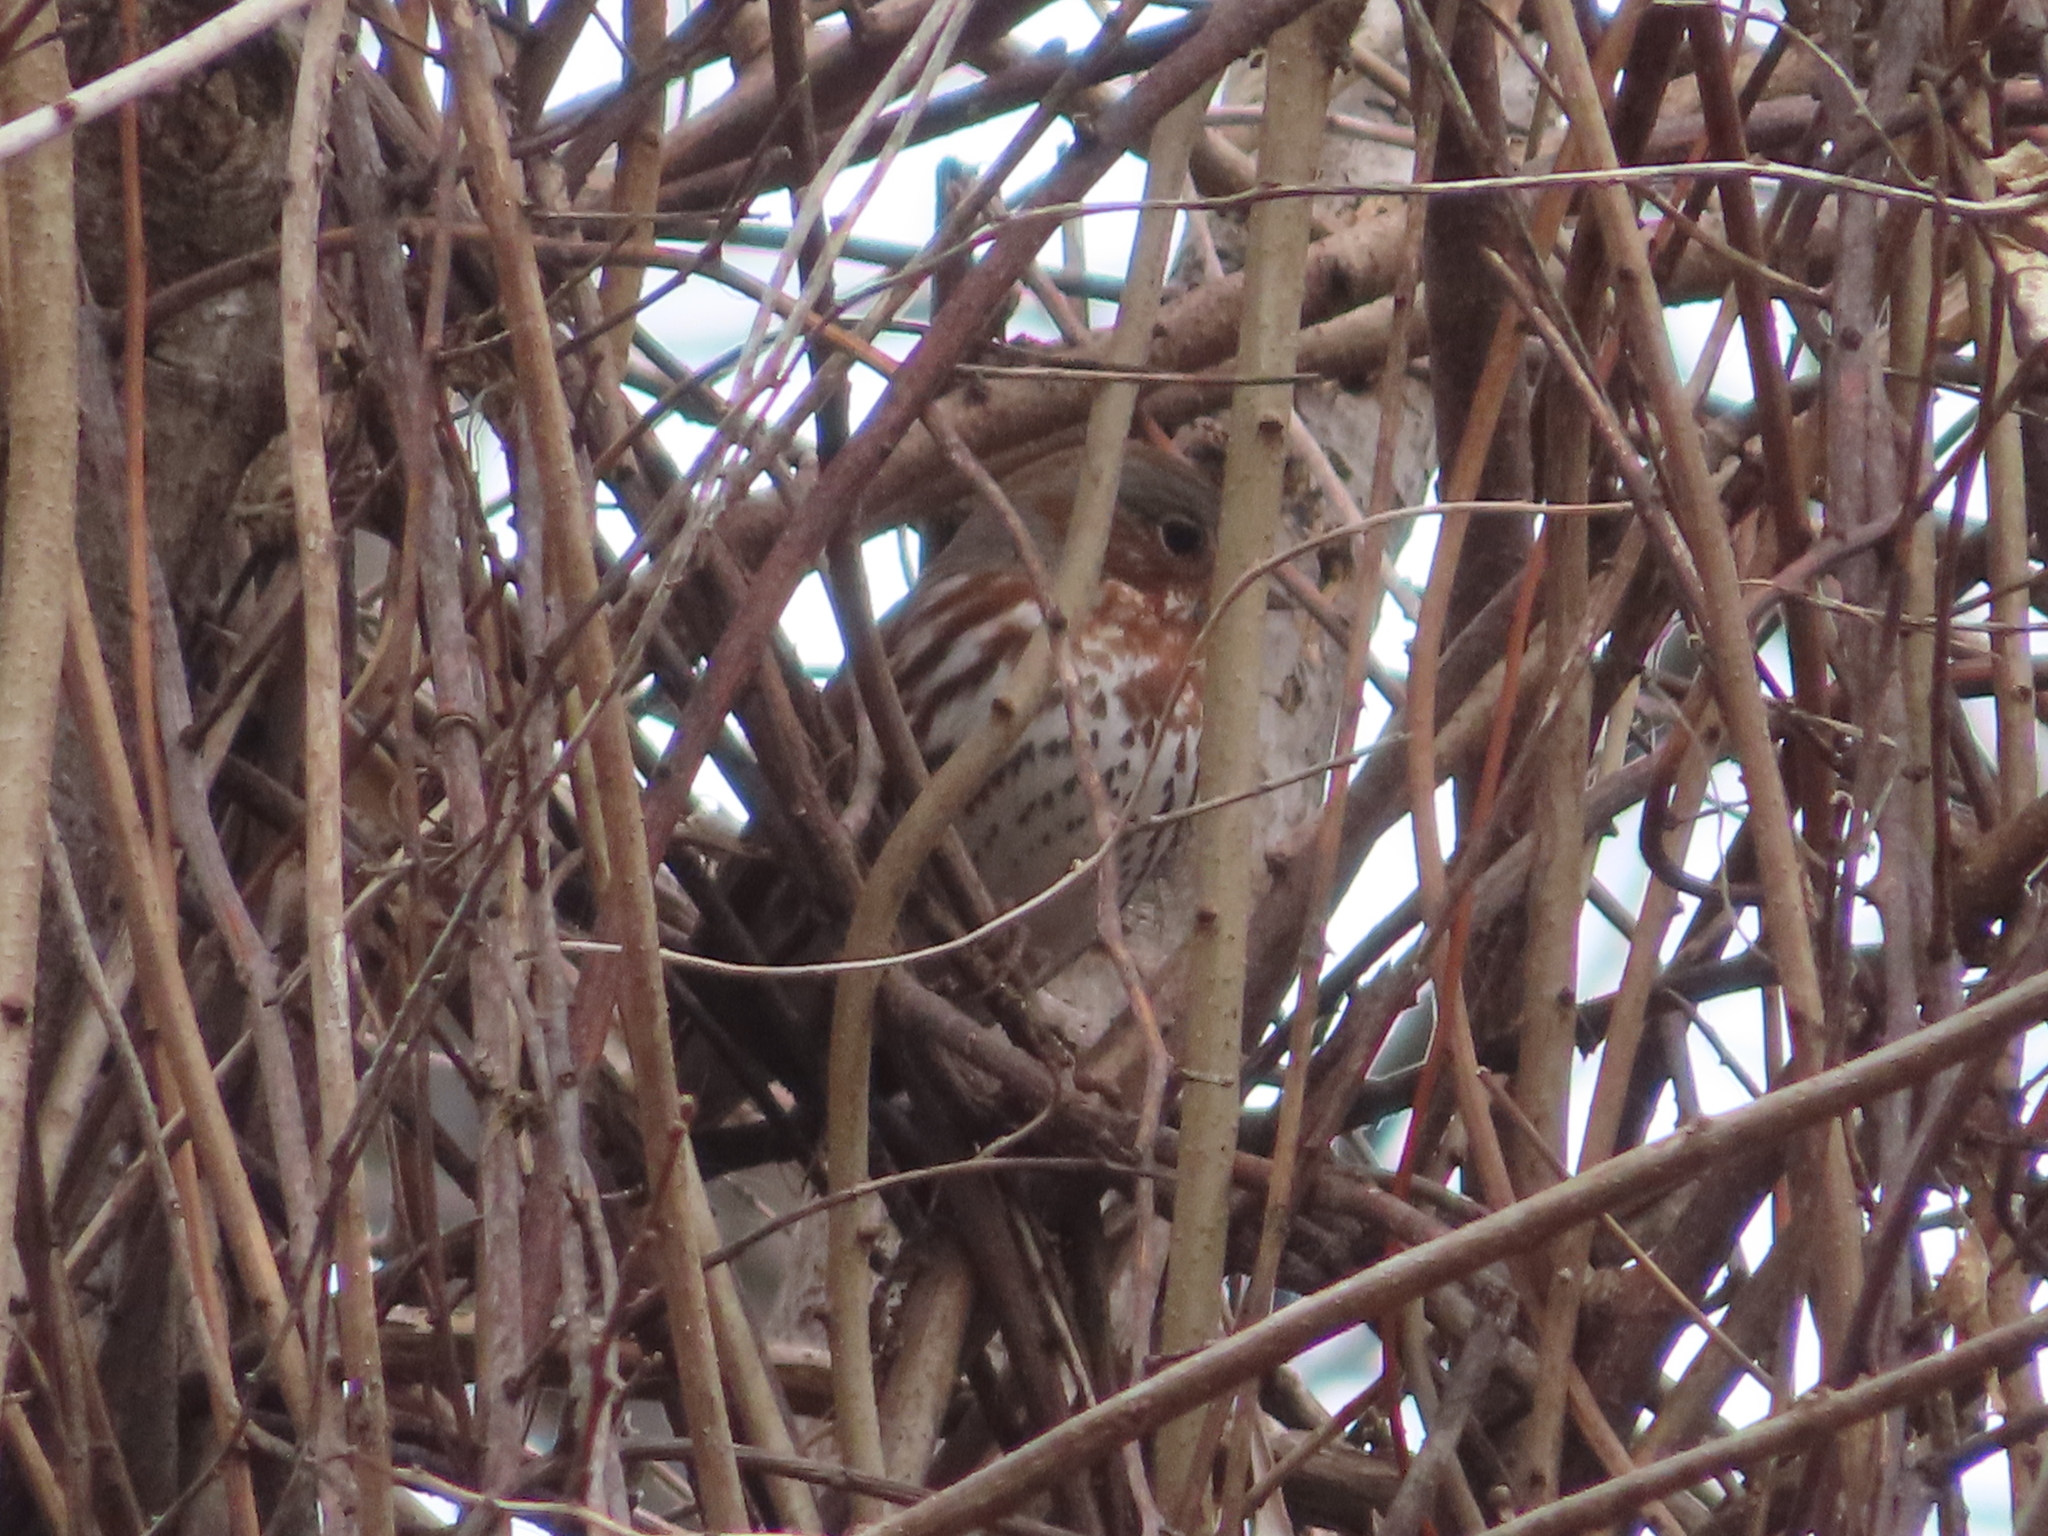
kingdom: Animalia
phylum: Chordata
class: Aves
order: Passeriformes
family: Passerellidae
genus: Passerella
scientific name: Passerella iliaca
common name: Fox sparrow
